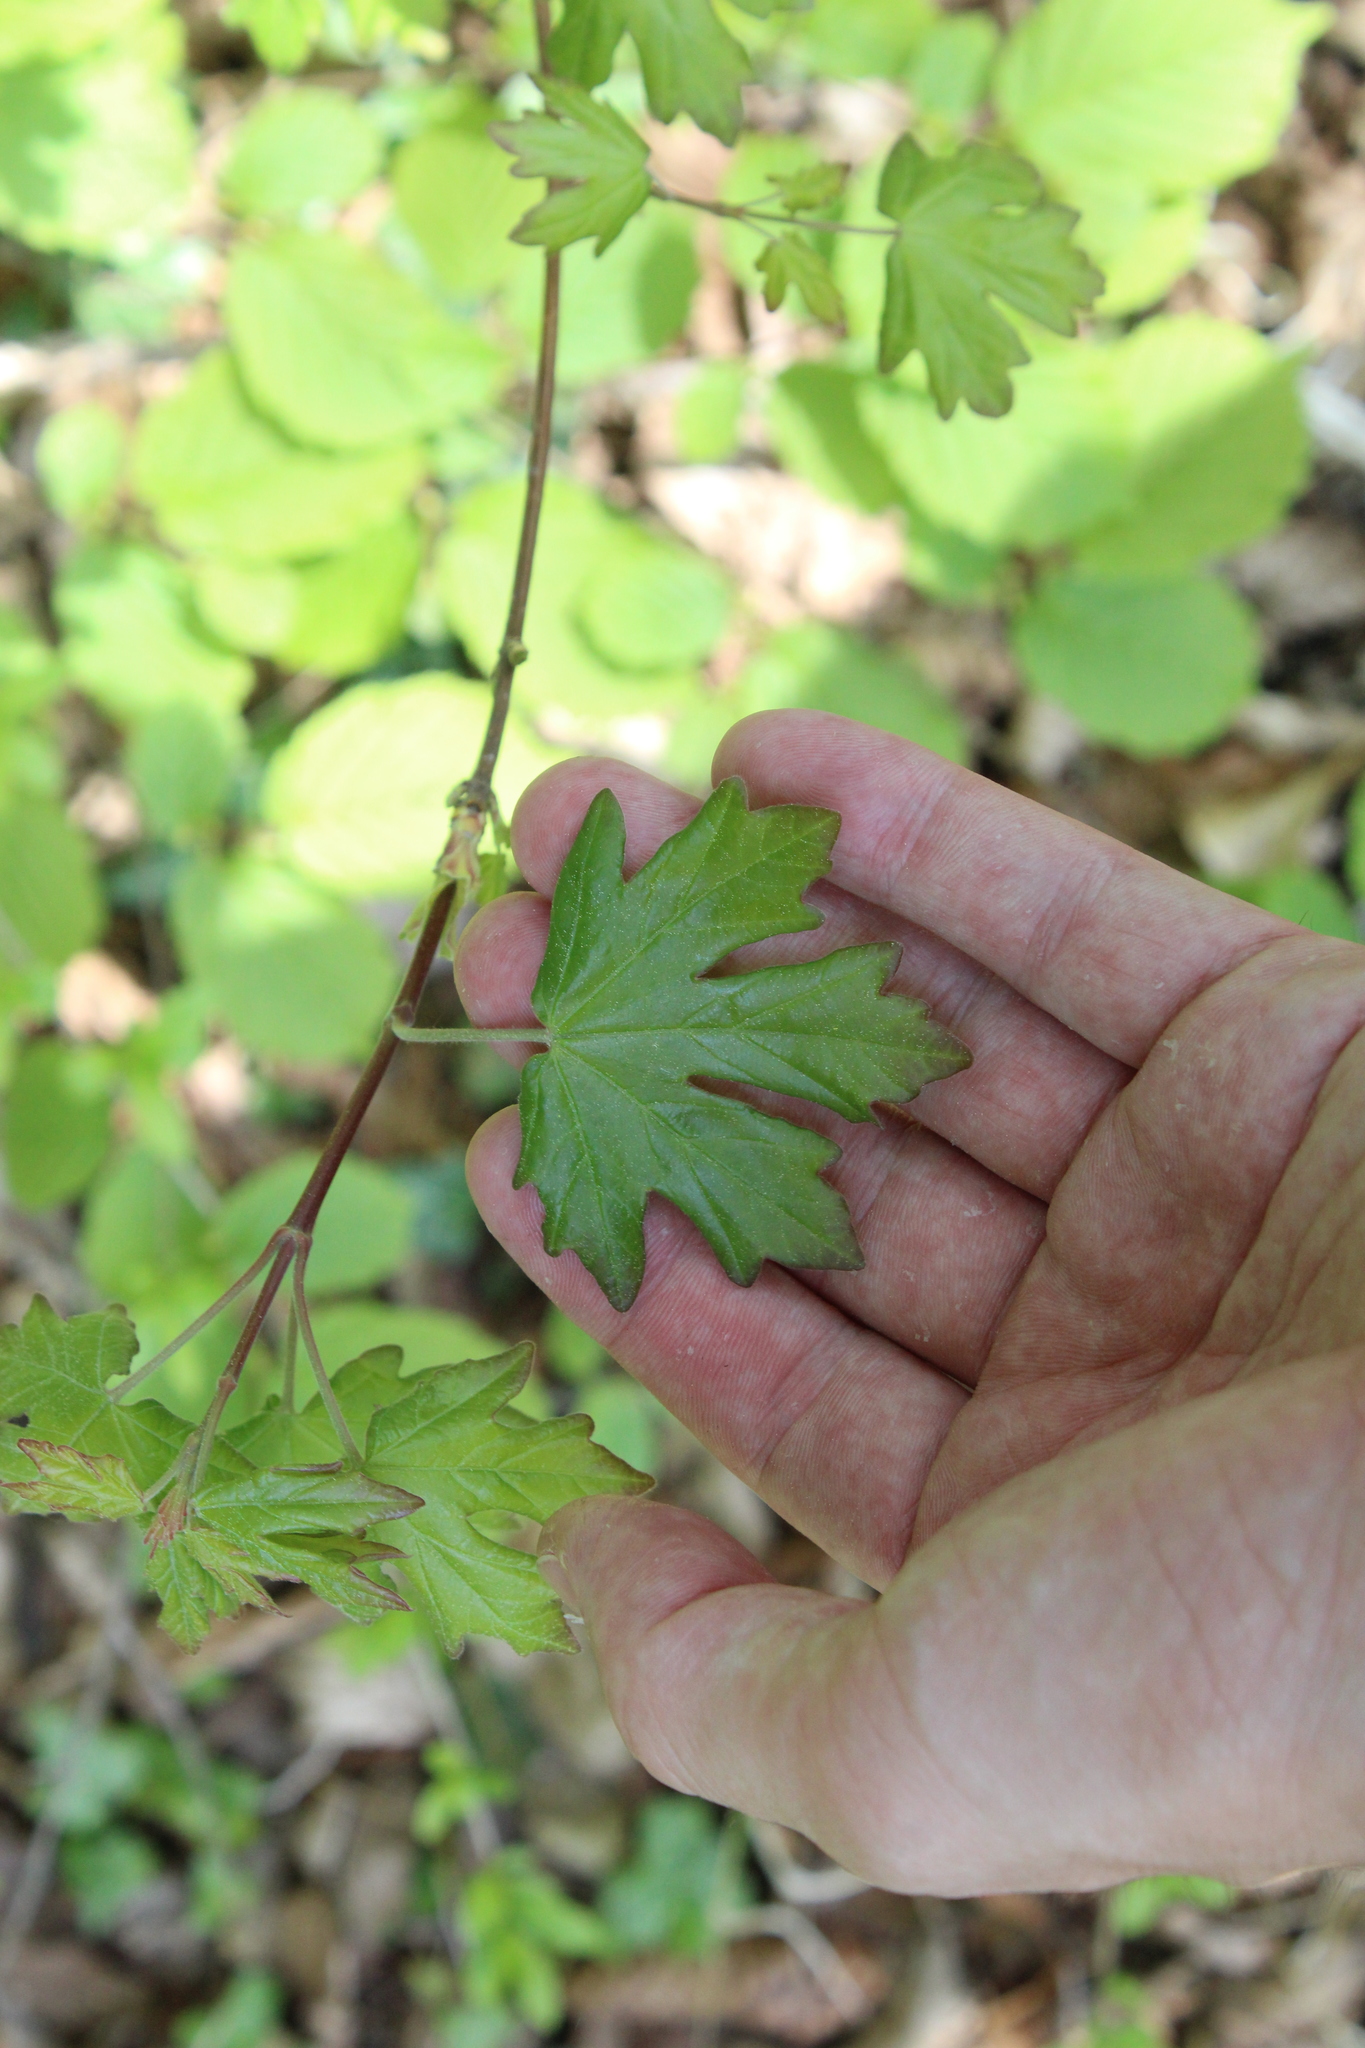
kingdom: Plantae
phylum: Tracheophyta
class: Magnoliopsida
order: Sapindales
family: Sapindaceae
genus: Acer
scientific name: Acer campestre
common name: Field maple
